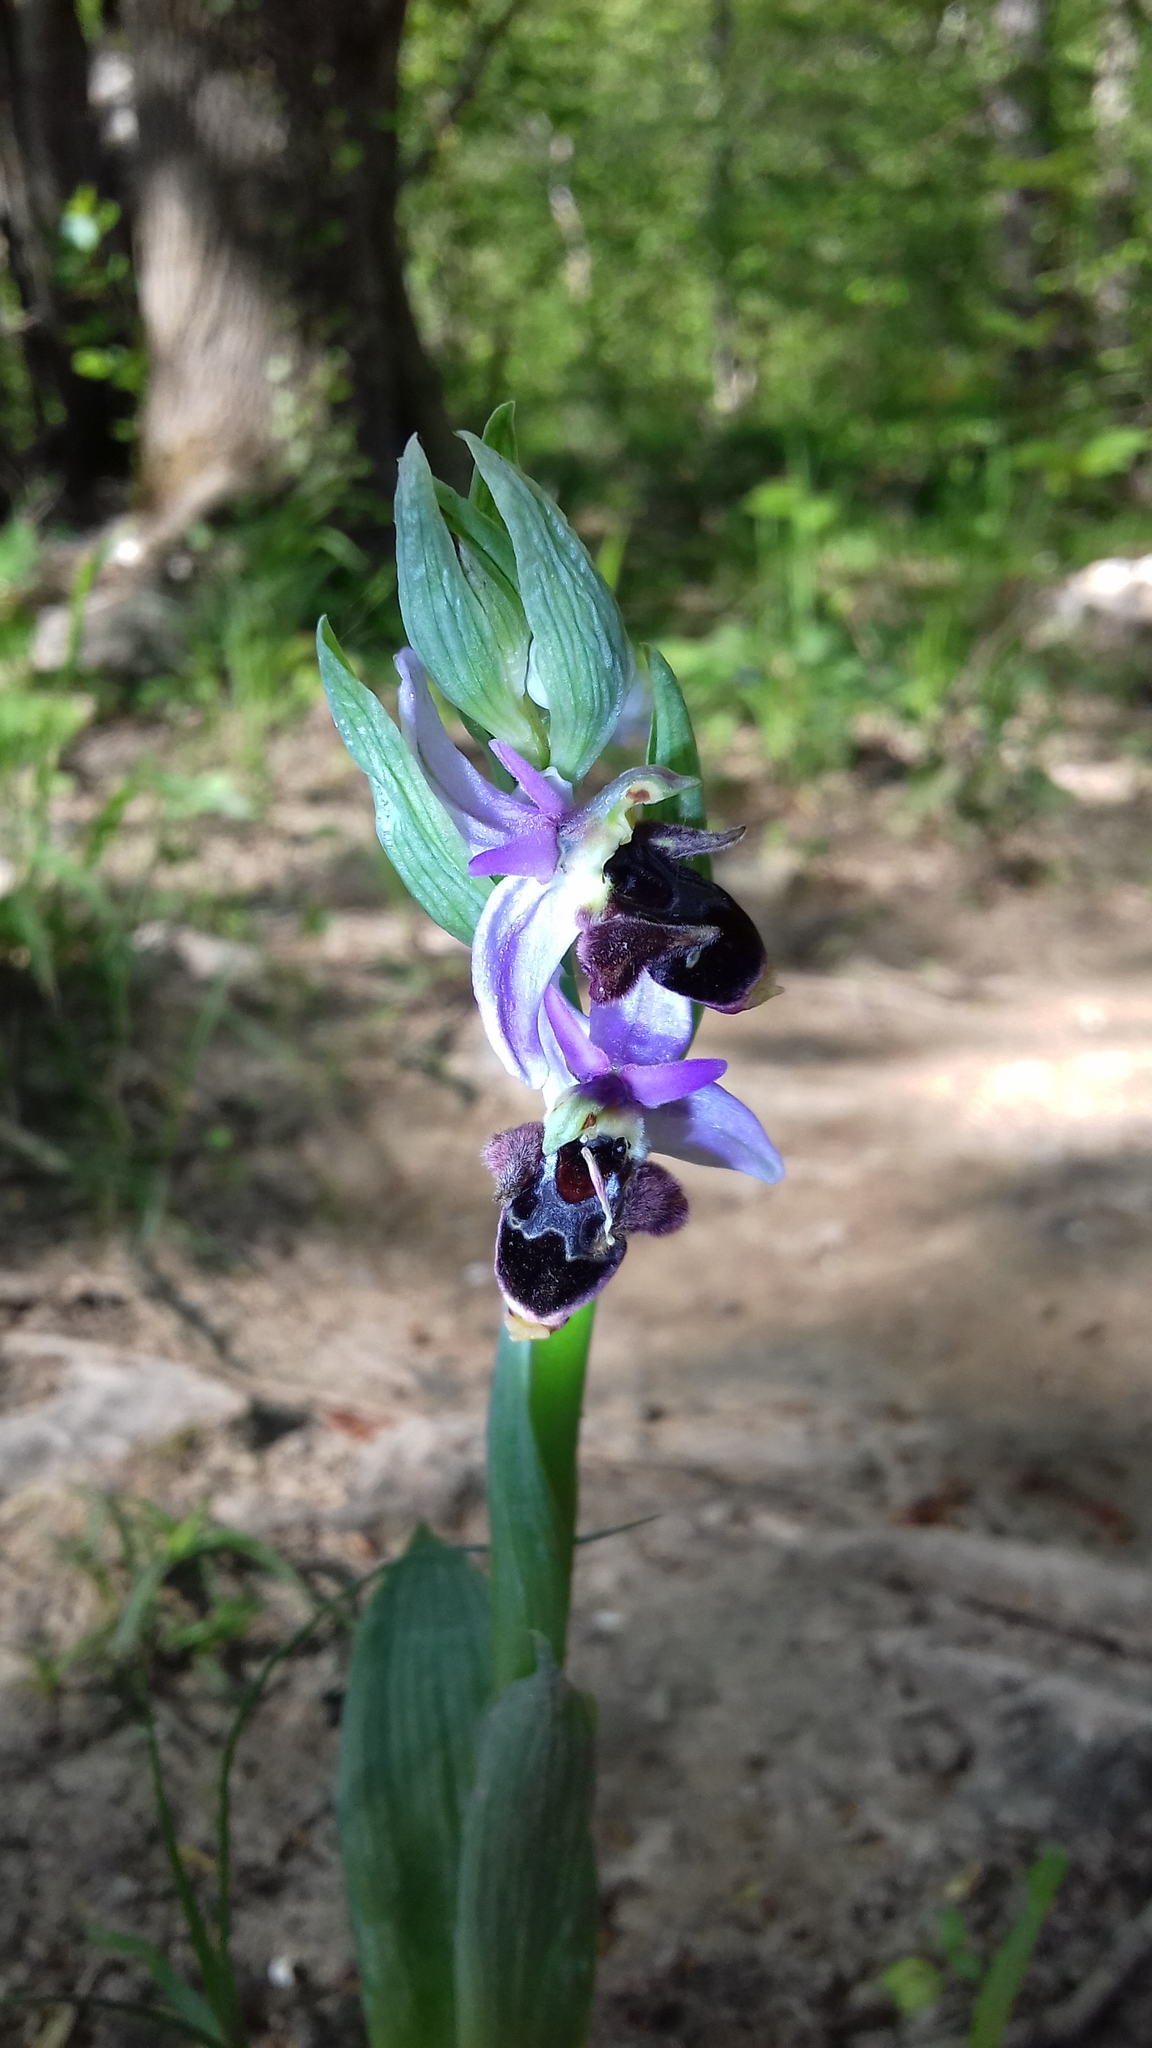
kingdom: Plantae
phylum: Tracheophyta
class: Liliopsida
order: Asparagales
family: Orchidaceae
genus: Ophrys
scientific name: Ophrys
